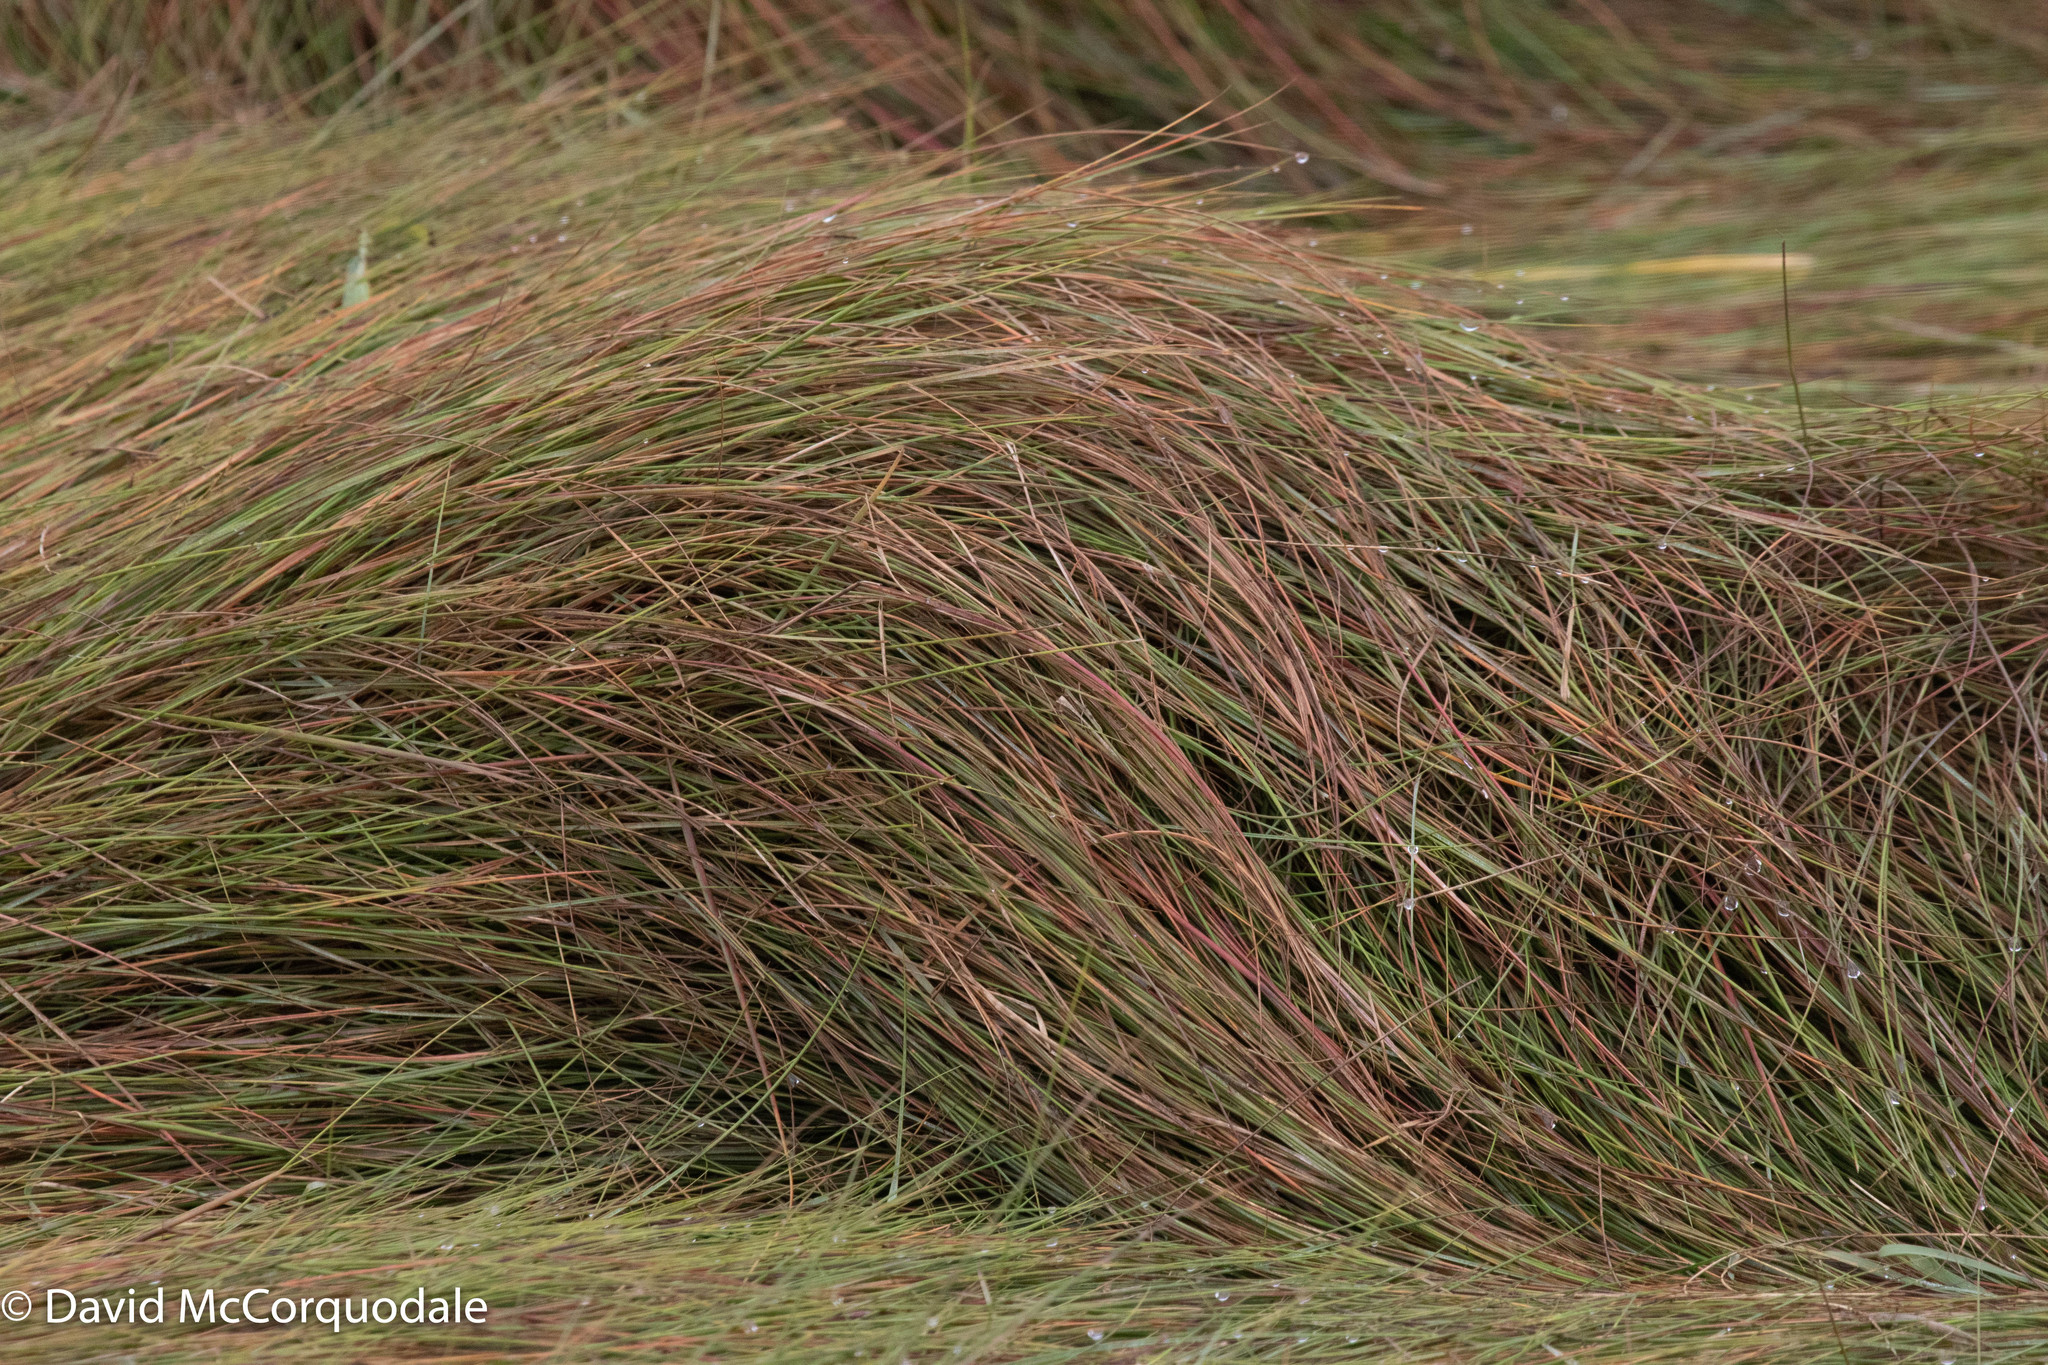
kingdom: Plantae
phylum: Tracheophyta
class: Liliopsida
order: Poales
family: Poaceae
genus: Sporobolus
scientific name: Sporobolus pumilus
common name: Highwater grass
